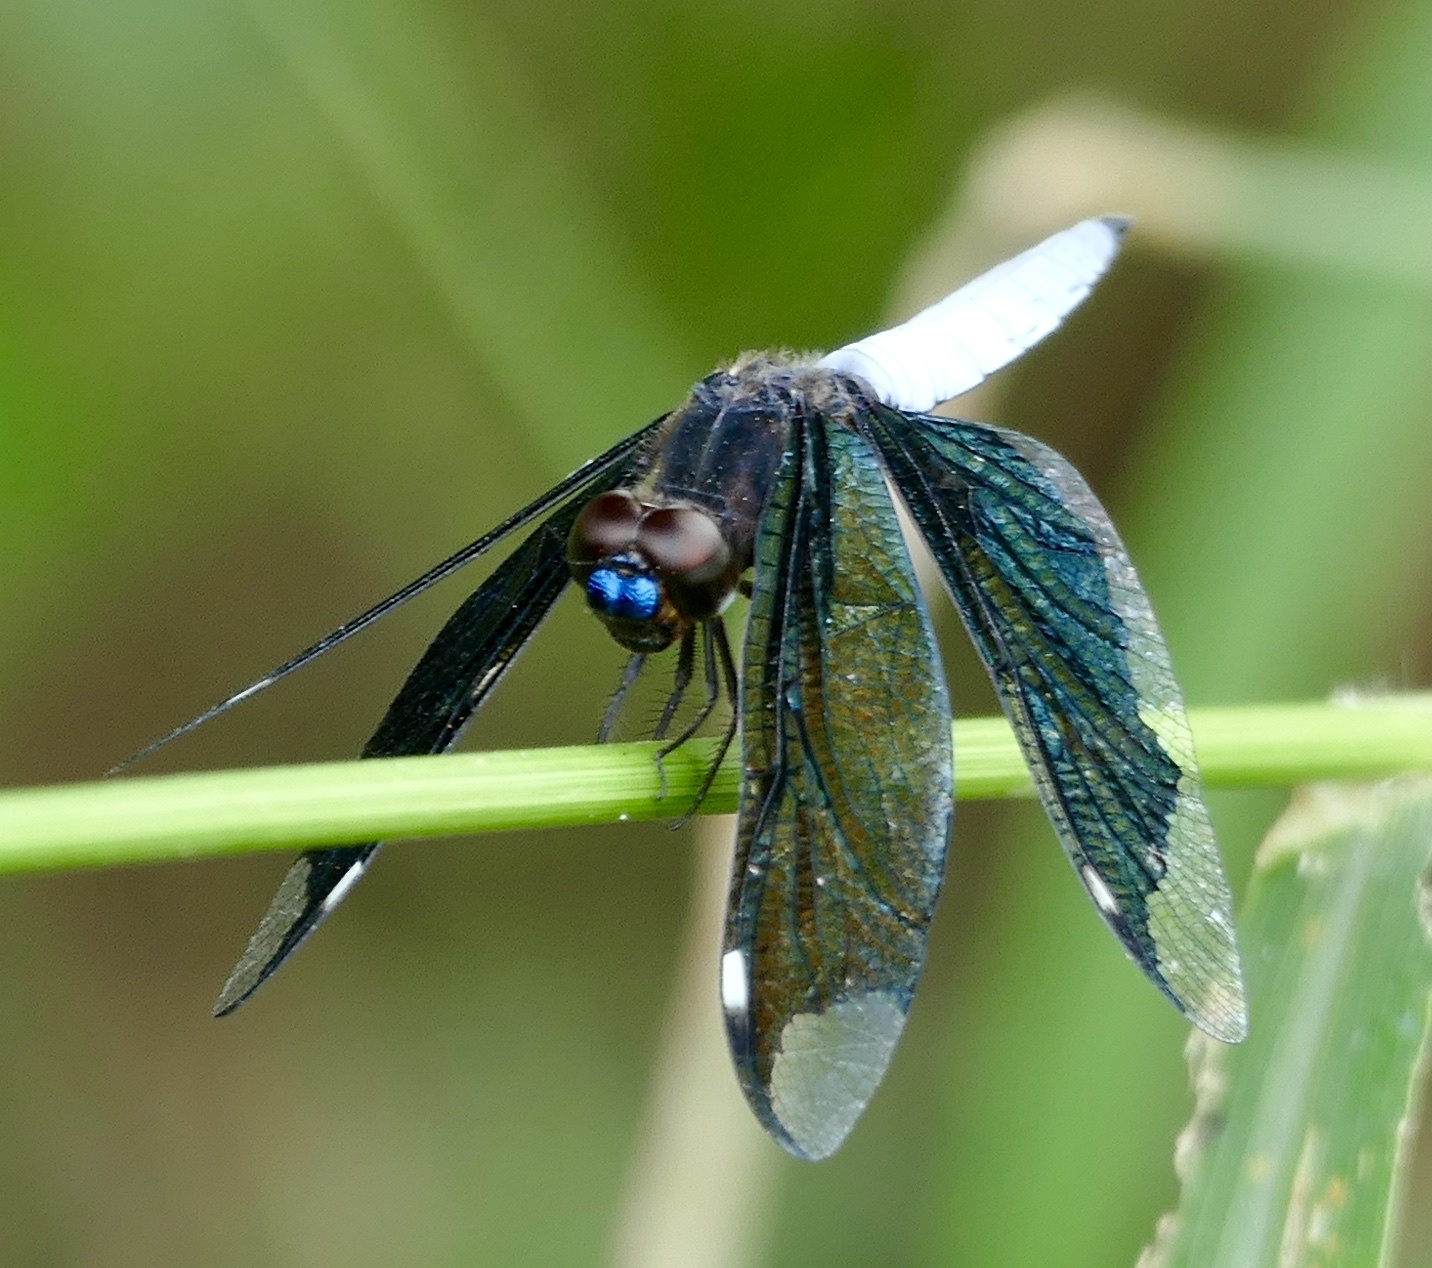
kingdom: Animalia
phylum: Arthropoda
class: Insecta
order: Odonata
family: Libellulidae
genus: Palpopleura
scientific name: Palpopleura lucia
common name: Lucia widow
